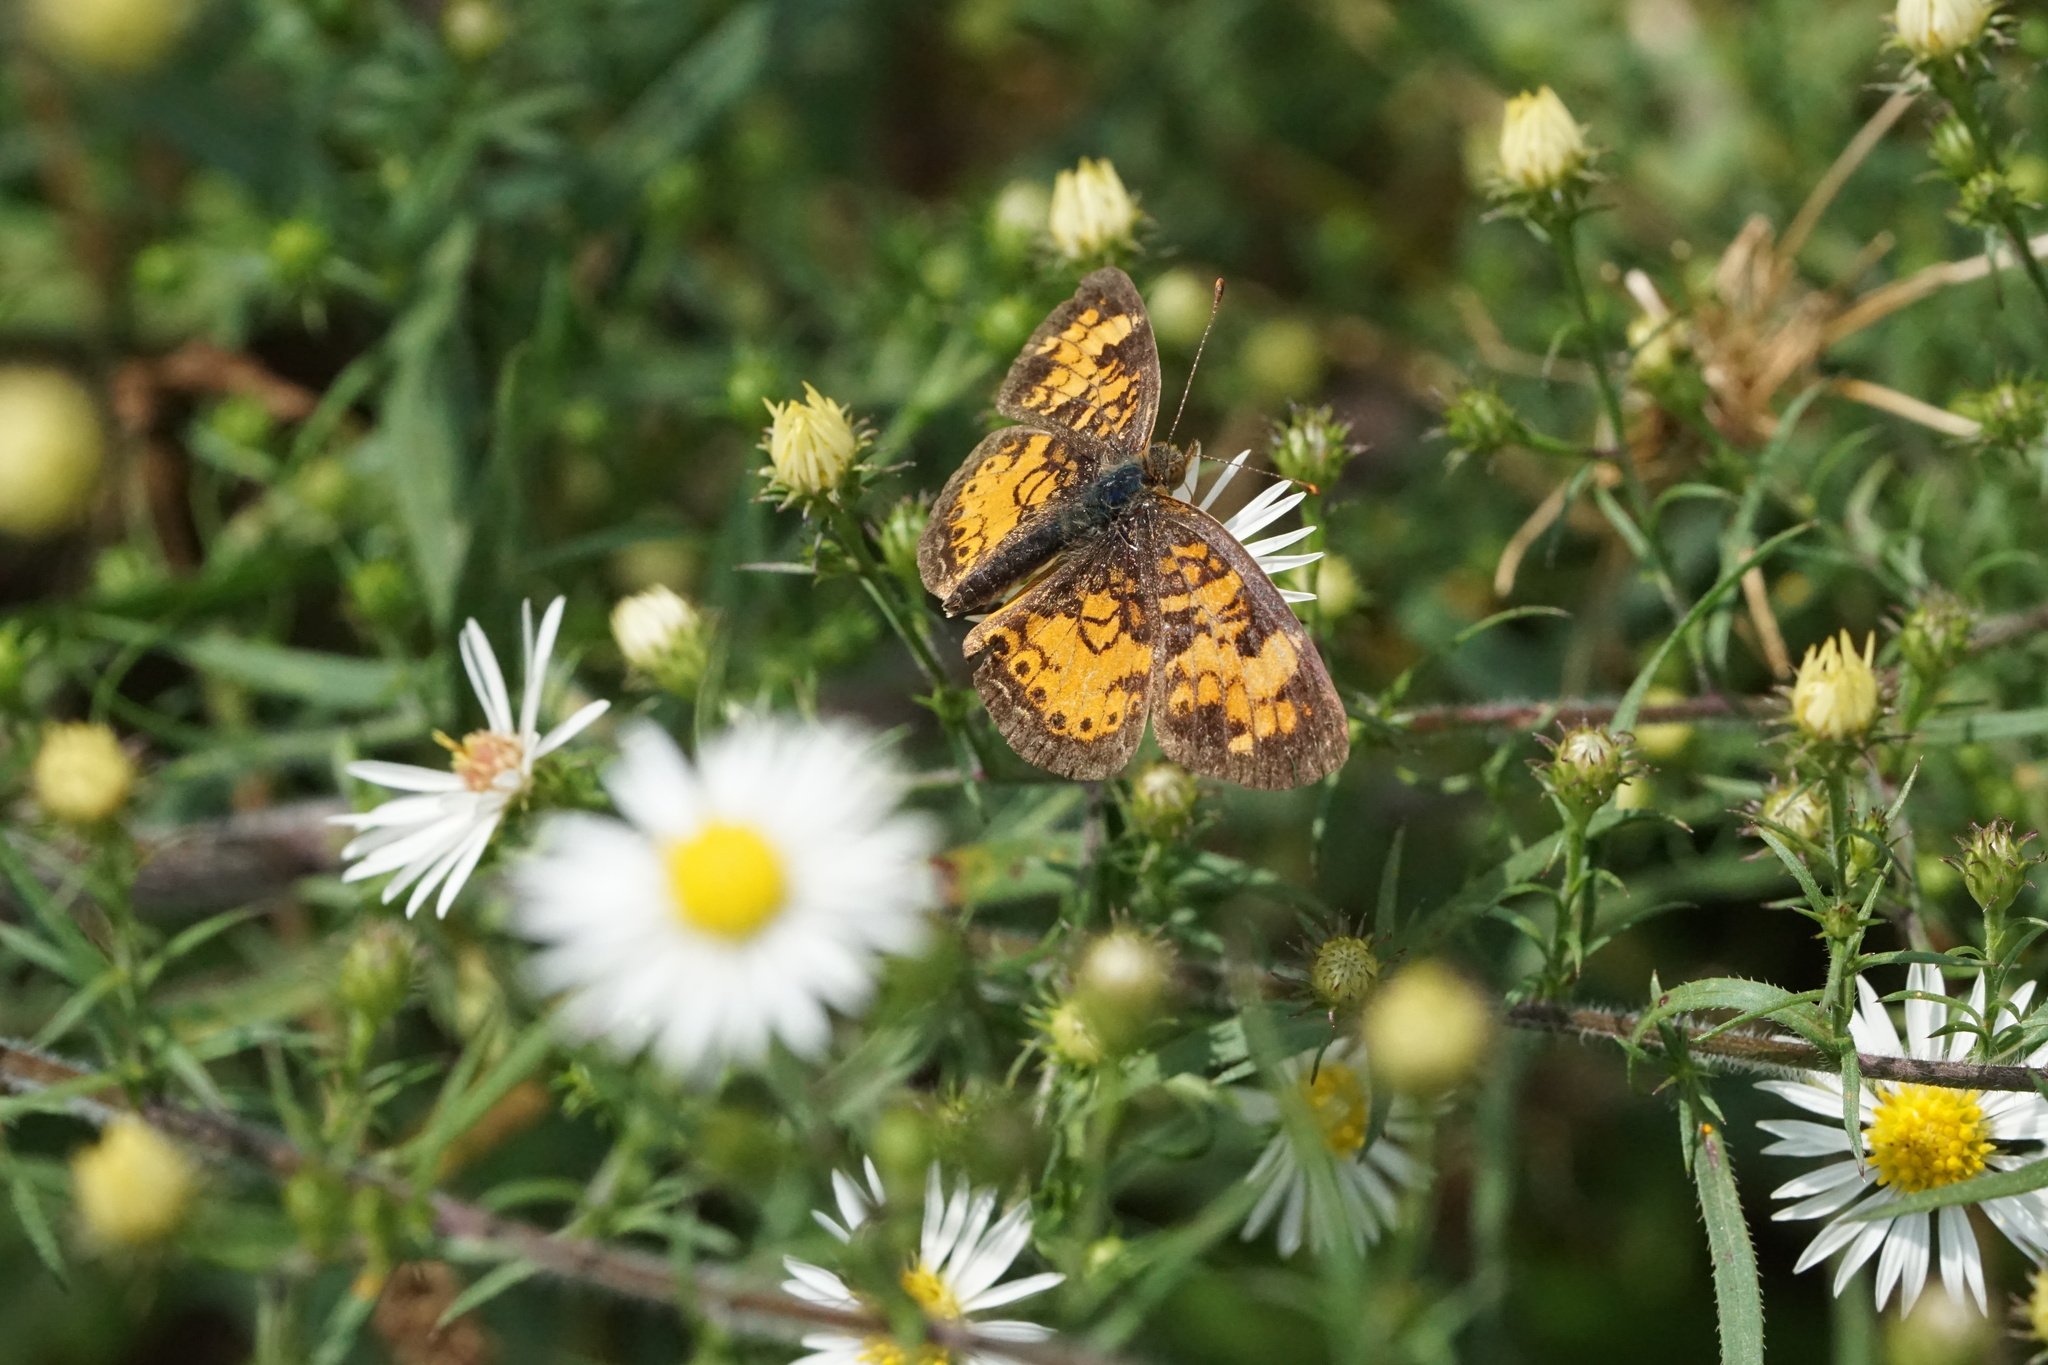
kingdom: Animalia
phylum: Arthropoda
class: Insecta
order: Lepidoptera
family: Nymphalidae
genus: Phyciodes
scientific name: Phyciodes tharos
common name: Pearl crescent
